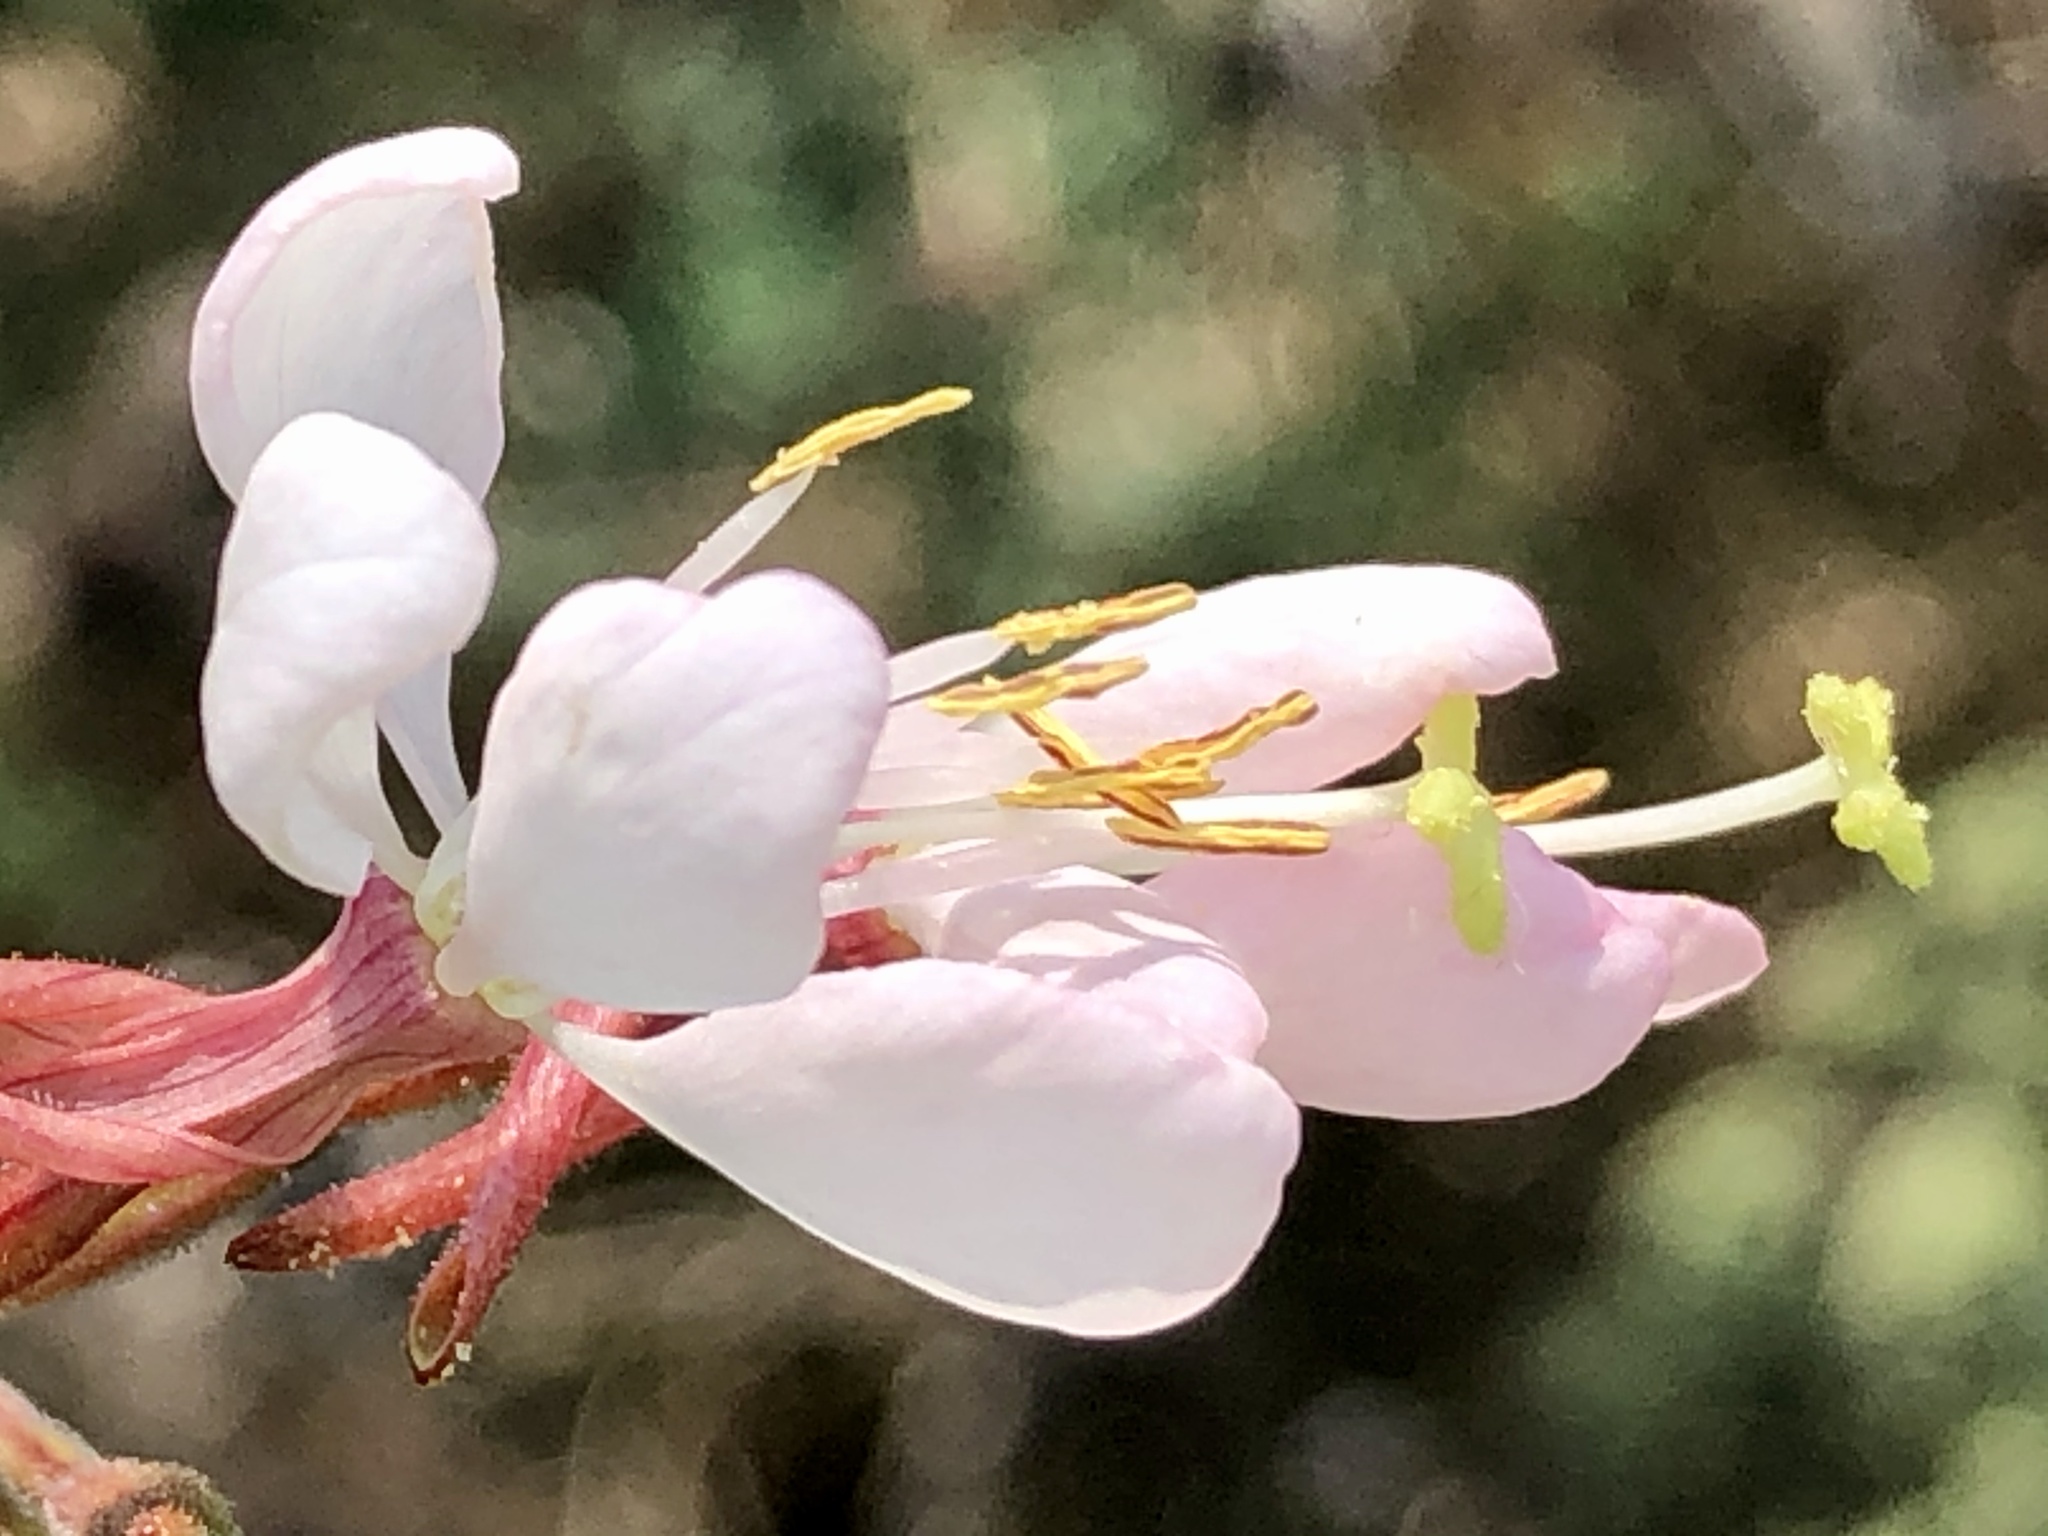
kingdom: Plantae
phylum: Tracheophyta
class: Magnoliopsida
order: Myrtales
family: Onagraceae
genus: Oenothera
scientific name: Oenothera gaura
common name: Biennial beeblossom
